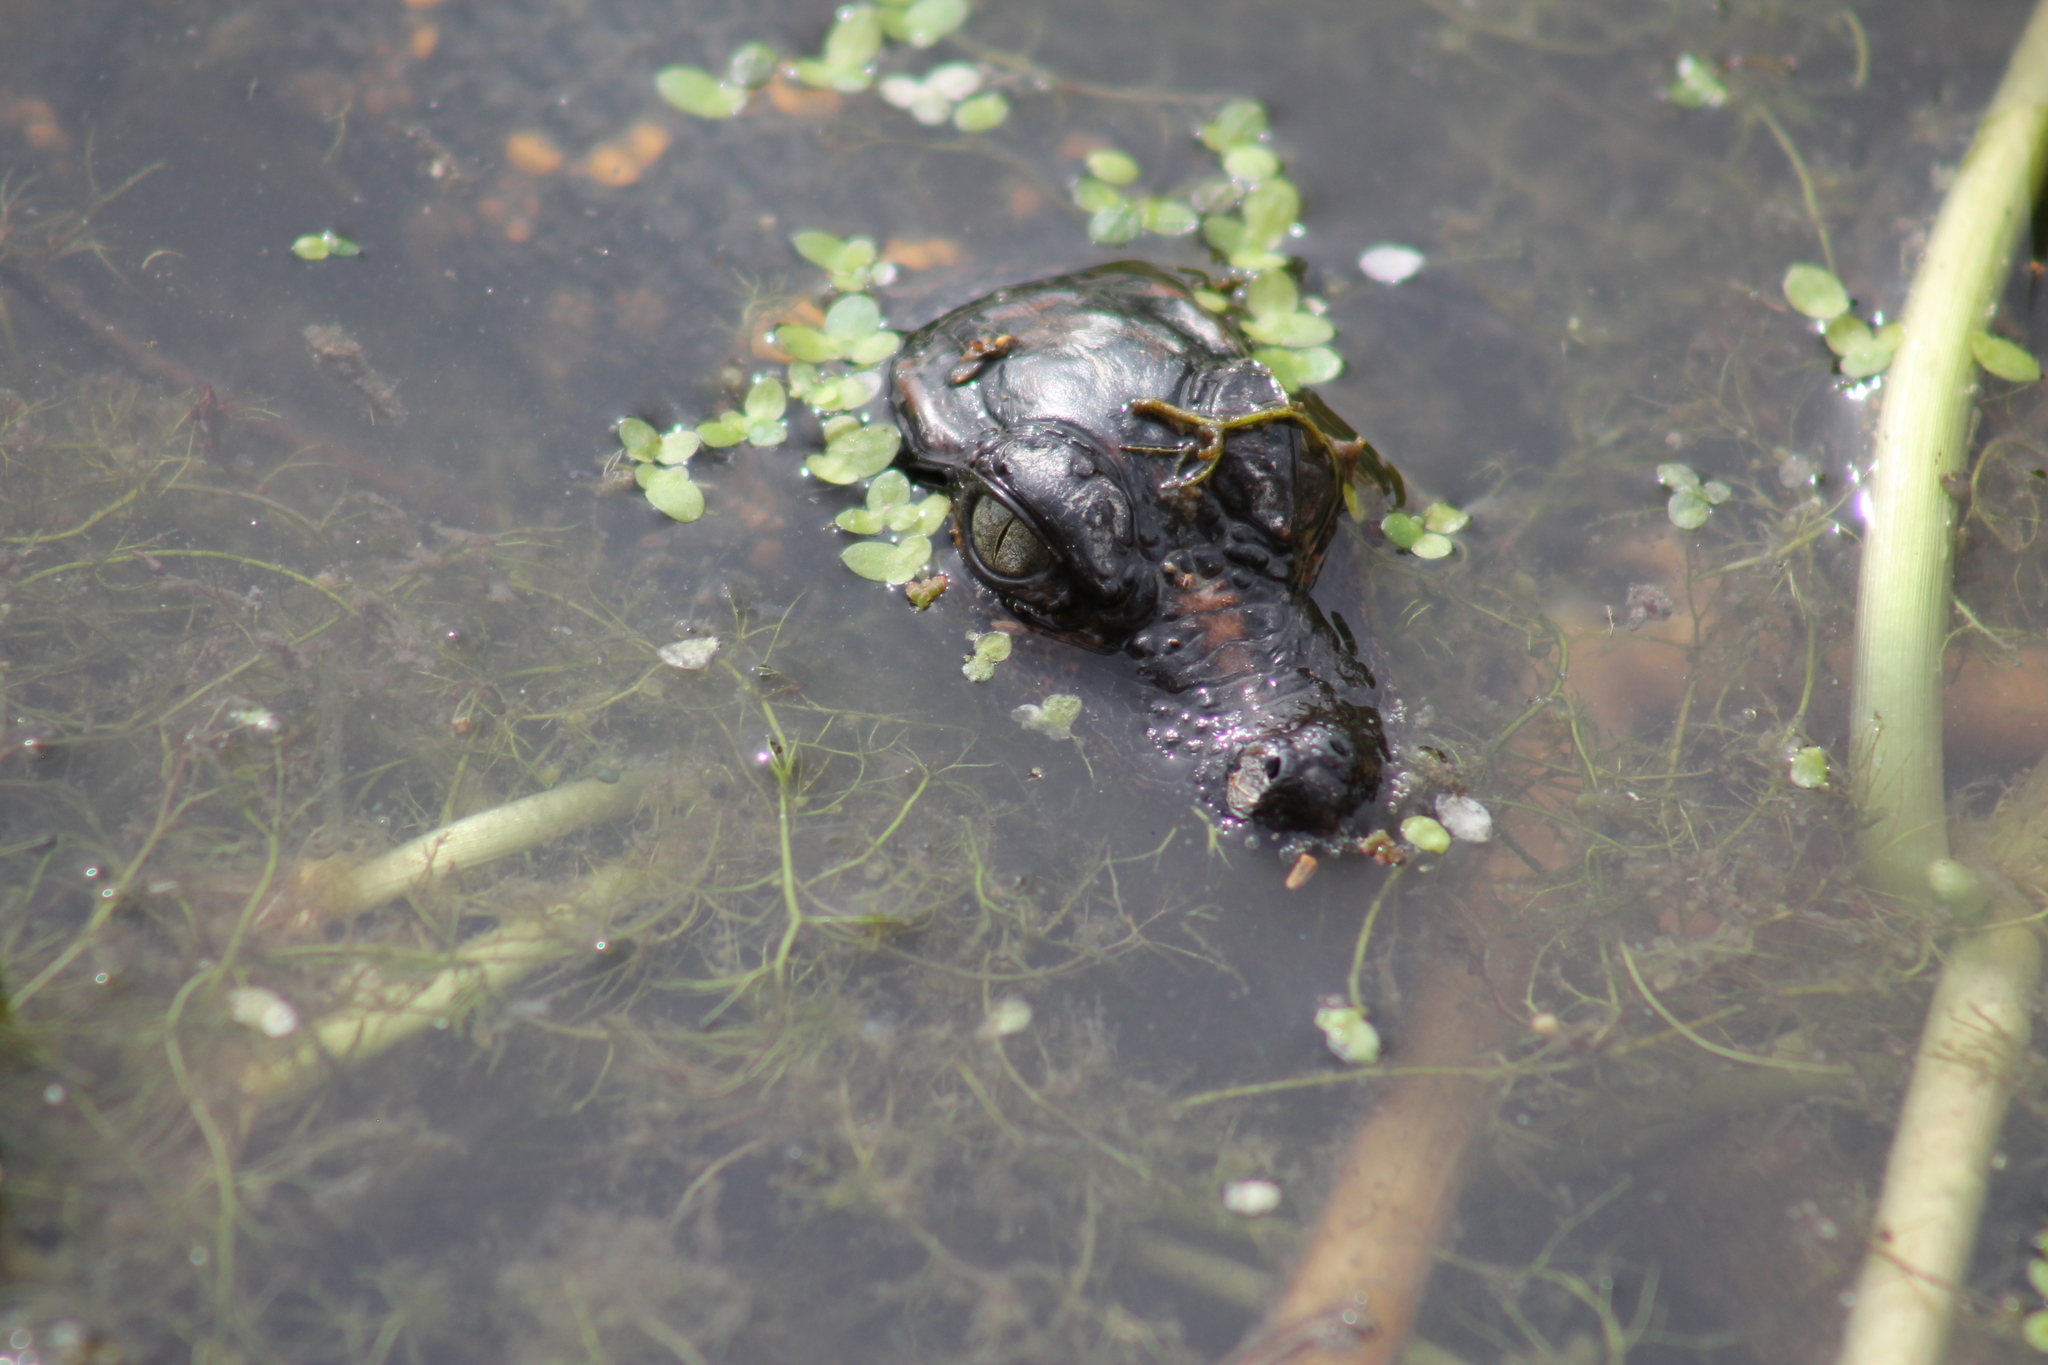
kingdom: Animalia
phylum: Chordata
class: Crocodylia
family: Alligatoridae
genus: Alligator
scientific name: Alligator mississippiensis
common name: American alligator
